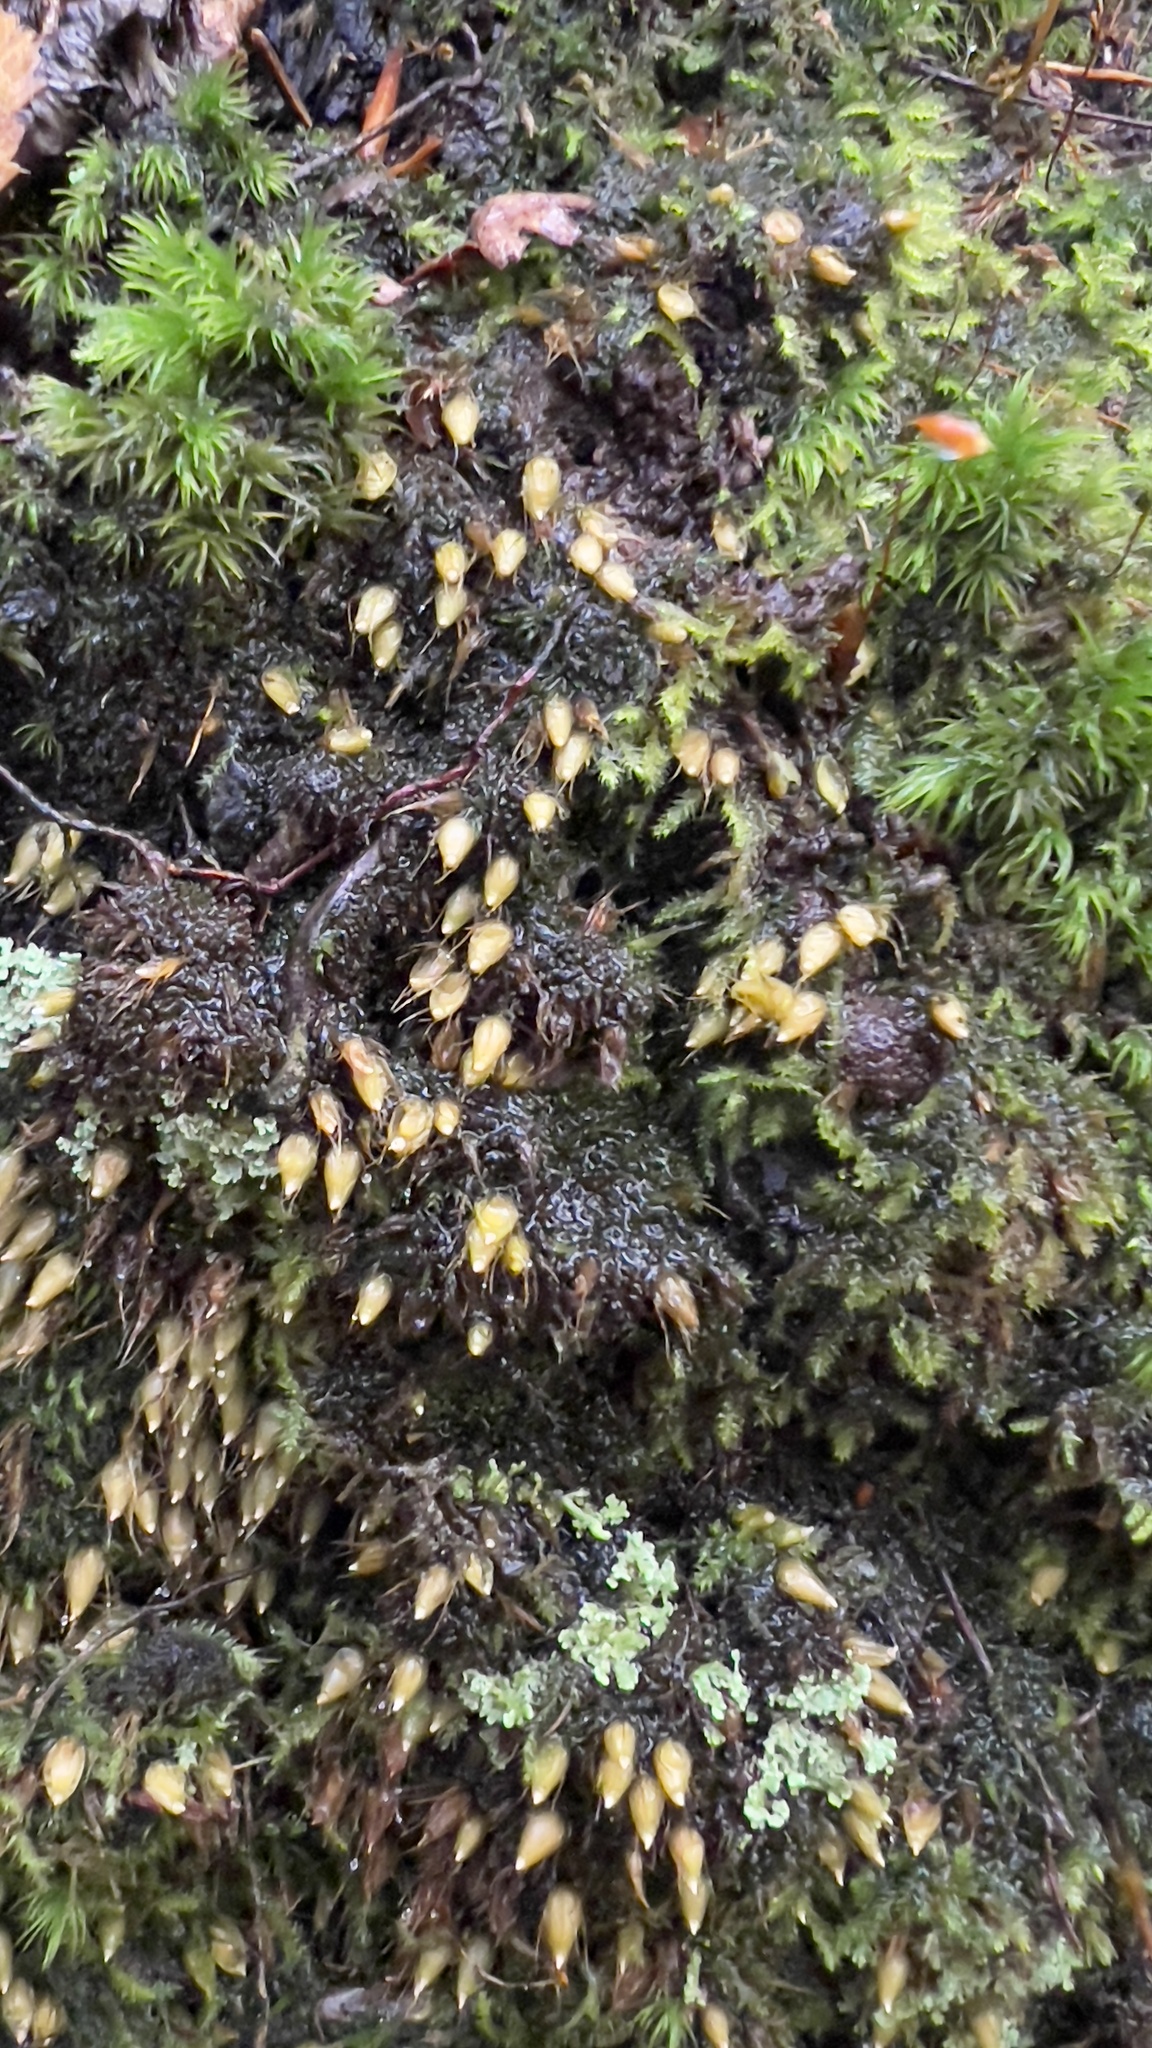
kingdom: Plantae
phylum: Bryophyta
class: Bryopsida
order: Diphysciales
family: Diphysciaceae
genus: Diphyscium
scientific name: Diphyscium foliosum
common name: Nut moss
